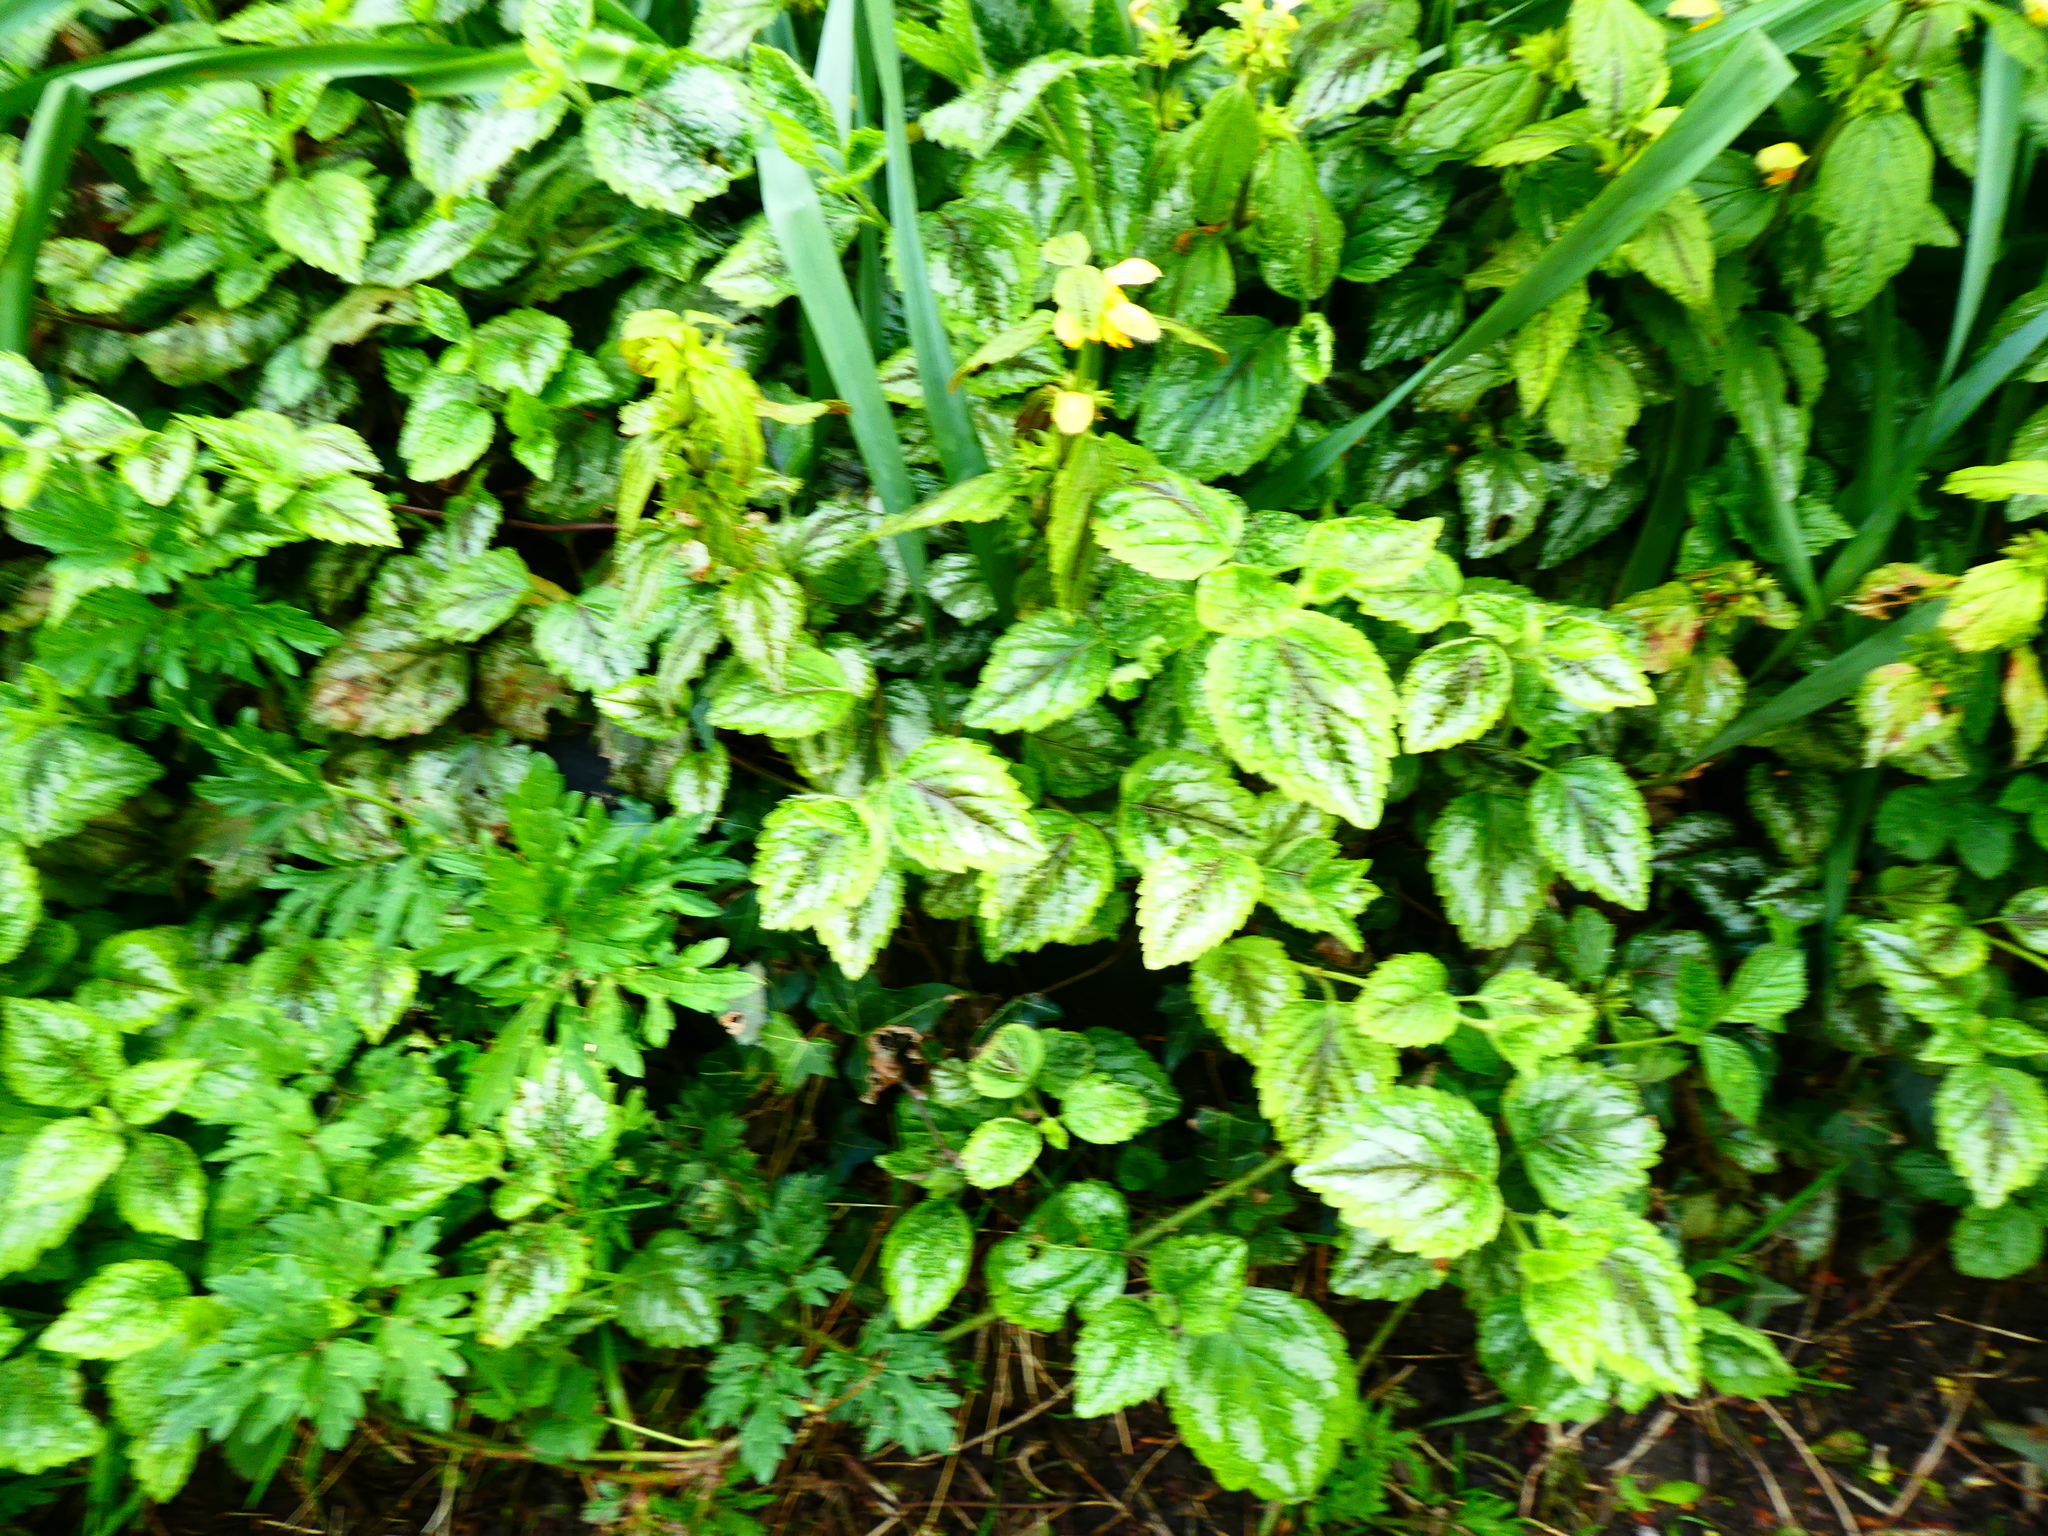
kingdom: Plantae
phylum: Tracheophyta
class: Magnoliopsida
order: Lamiales
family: Lamiaceae
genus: Lamium
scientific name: Lamium galeobdolon
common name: Yellow archangel
